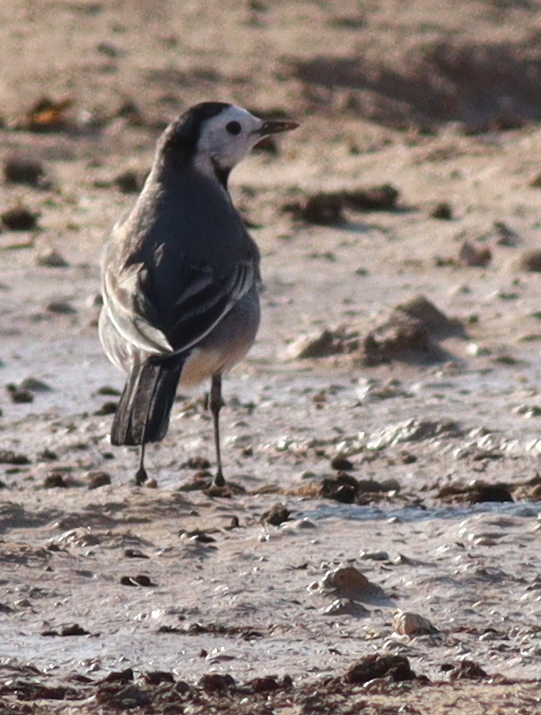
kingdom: Animalia
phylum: Chordata
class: Aves
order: Passeriformes
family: Motacillidae
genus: Motacilla
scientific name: Motacilla alba
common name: White wagtail
